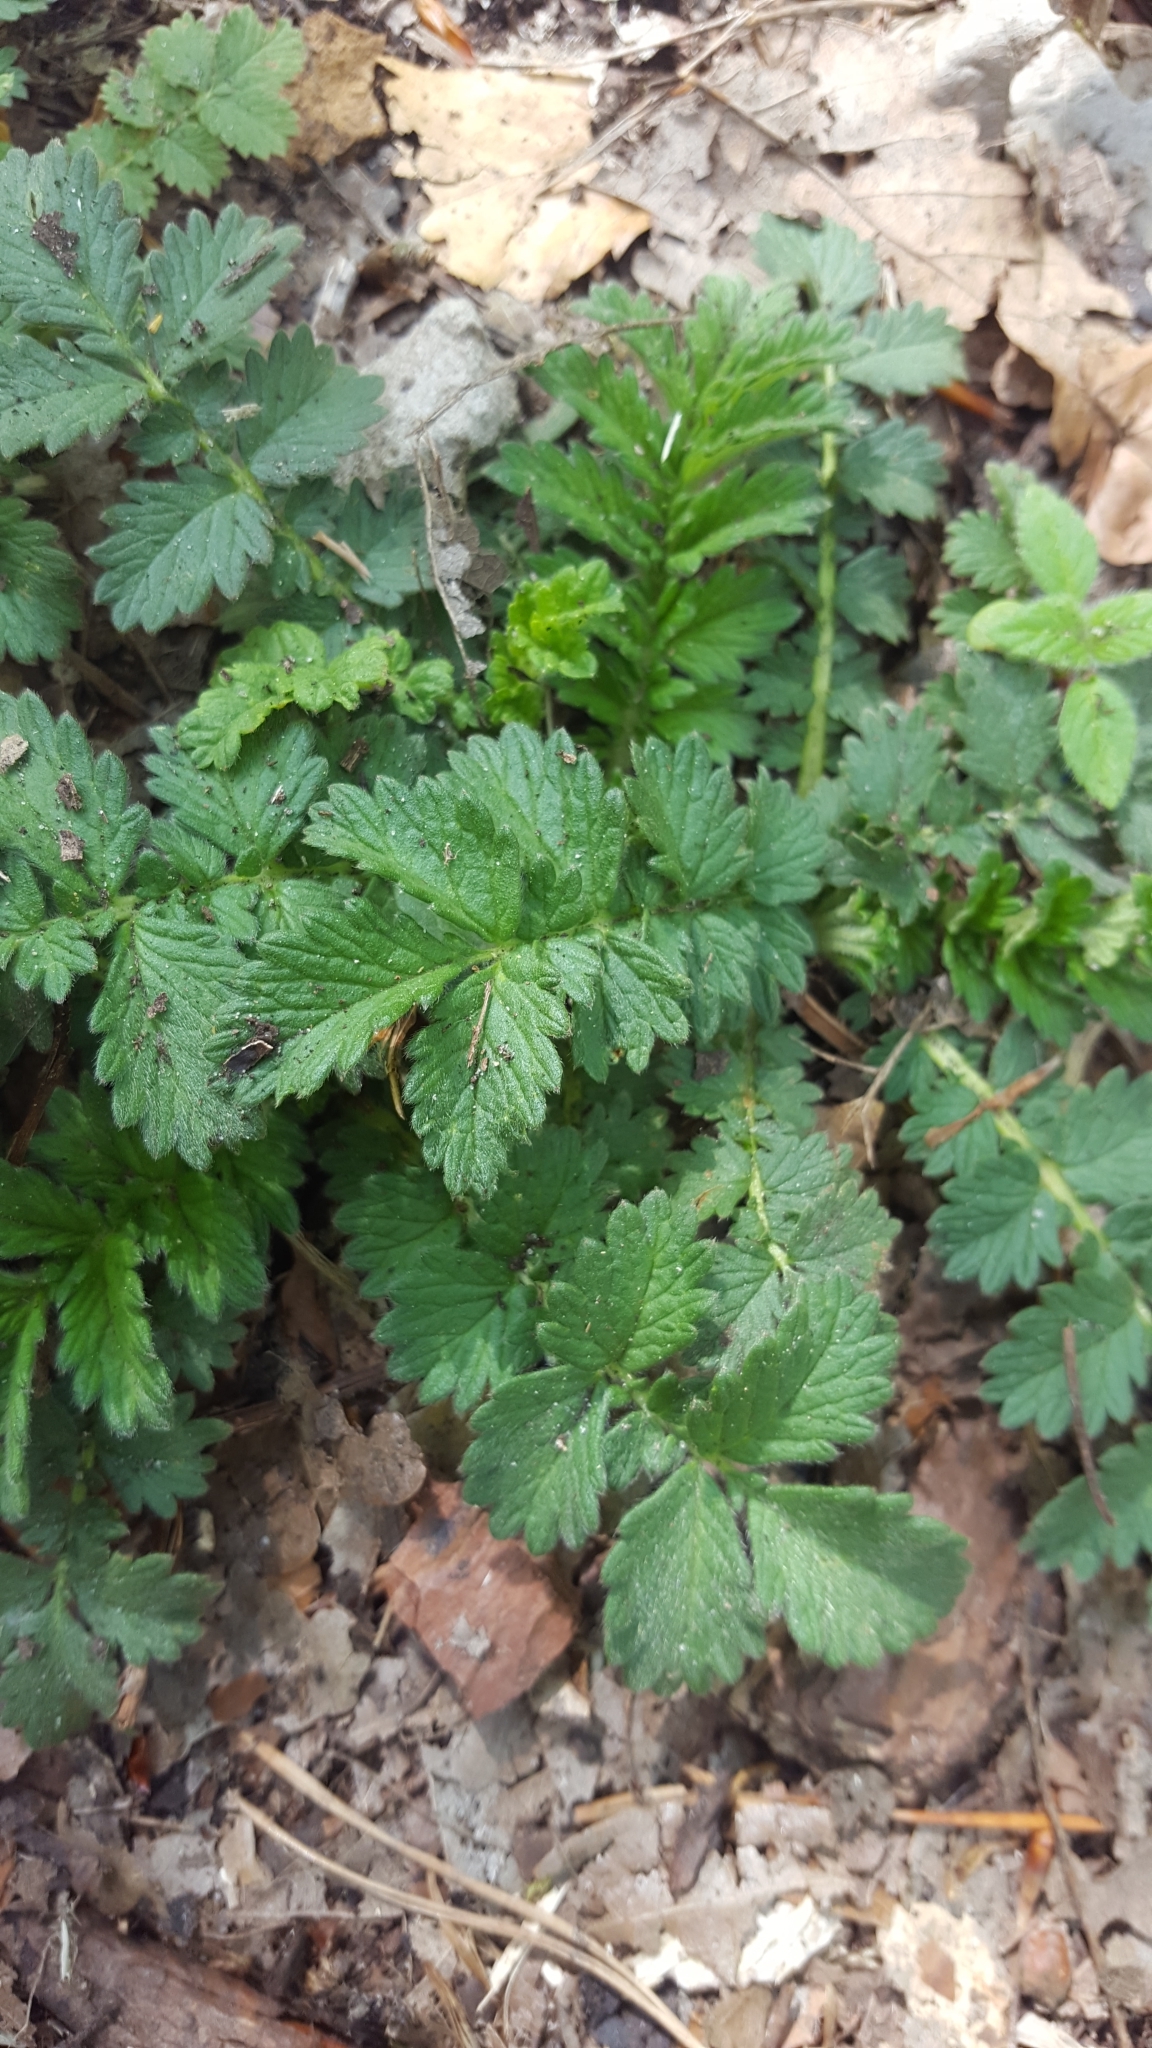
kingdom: Plantae
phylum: Tracheophyta
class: Magnoliopsida
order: Rosales
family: Rosaceae
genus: Poterium
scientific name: Poterium sanguisorba
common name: Salad burnet
